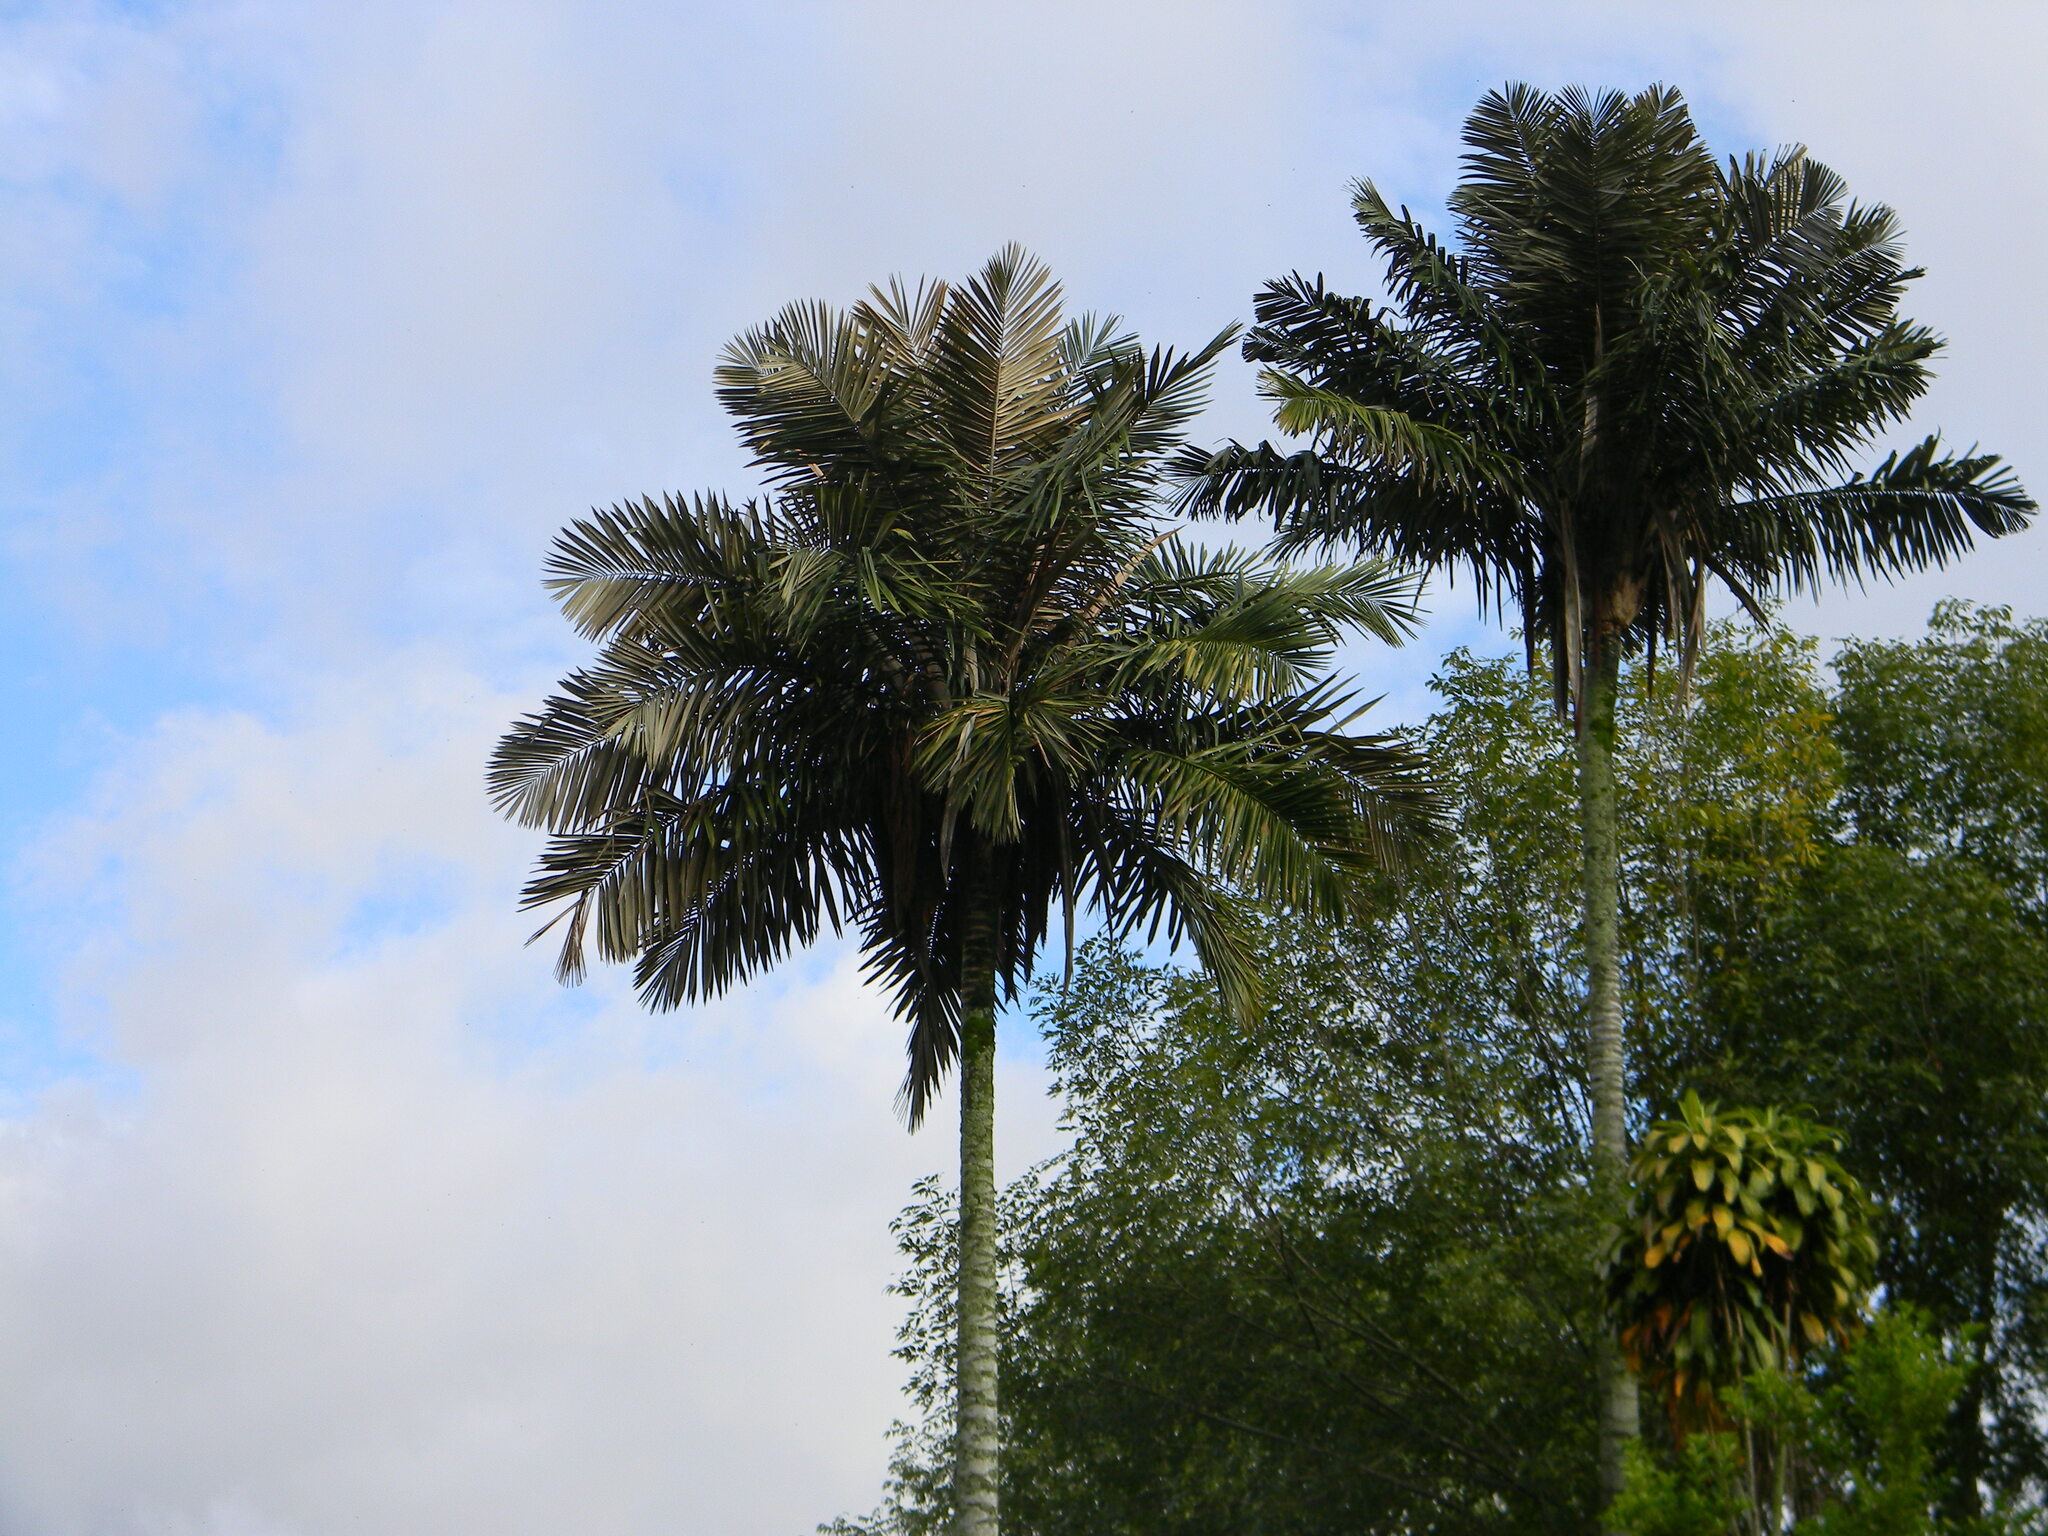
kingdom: Plantae
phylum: Tracheophyta
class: Liliopsida
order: Arecales
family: Arecaceae
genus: Ceroxylon
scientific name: Ceroxylon sasaimae
